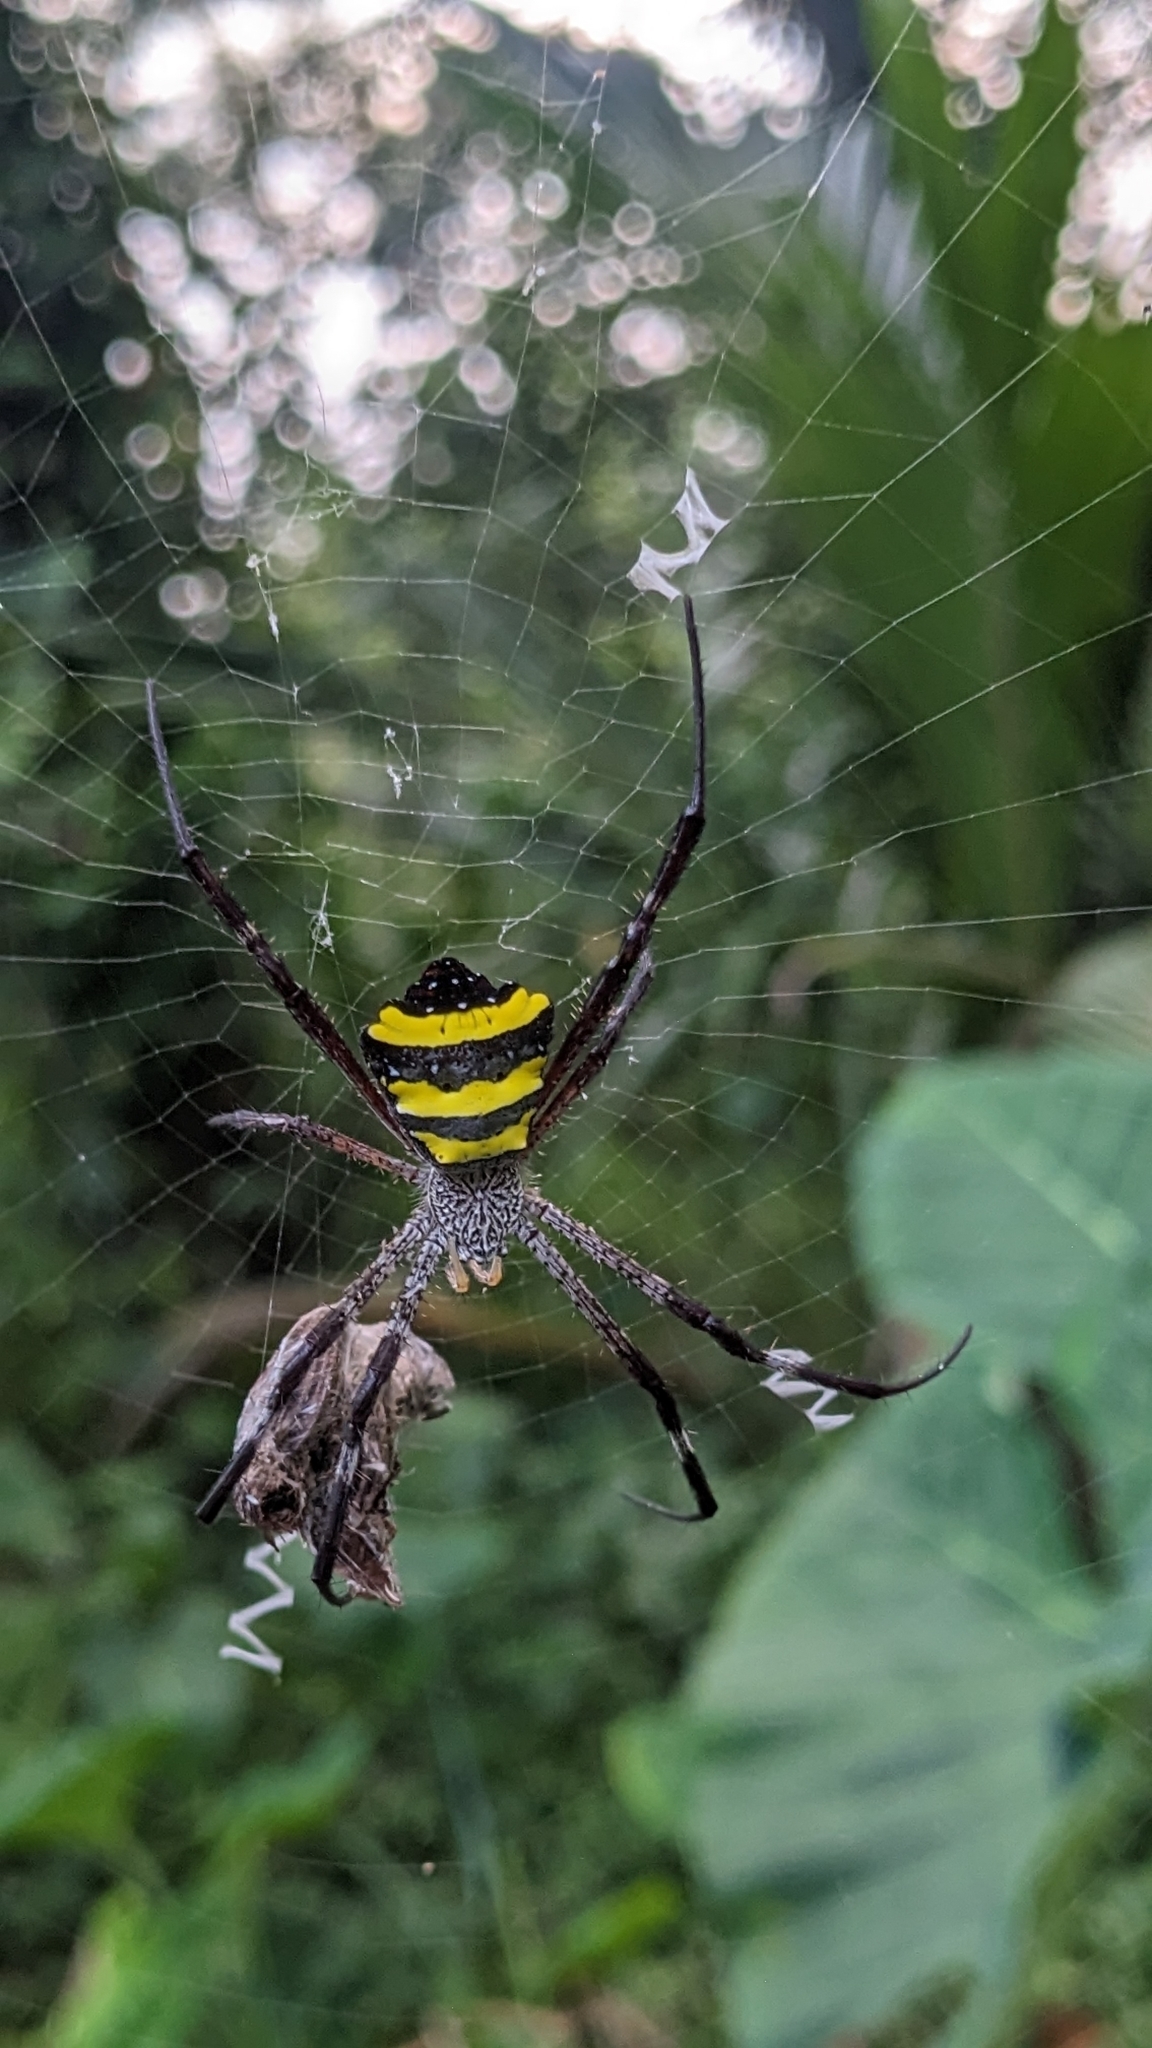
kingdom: Animalia
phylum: Arthropoda
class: Arachnida
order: Araneae
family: Araneidae
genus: Argiope
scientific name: Argiope taprobanica
